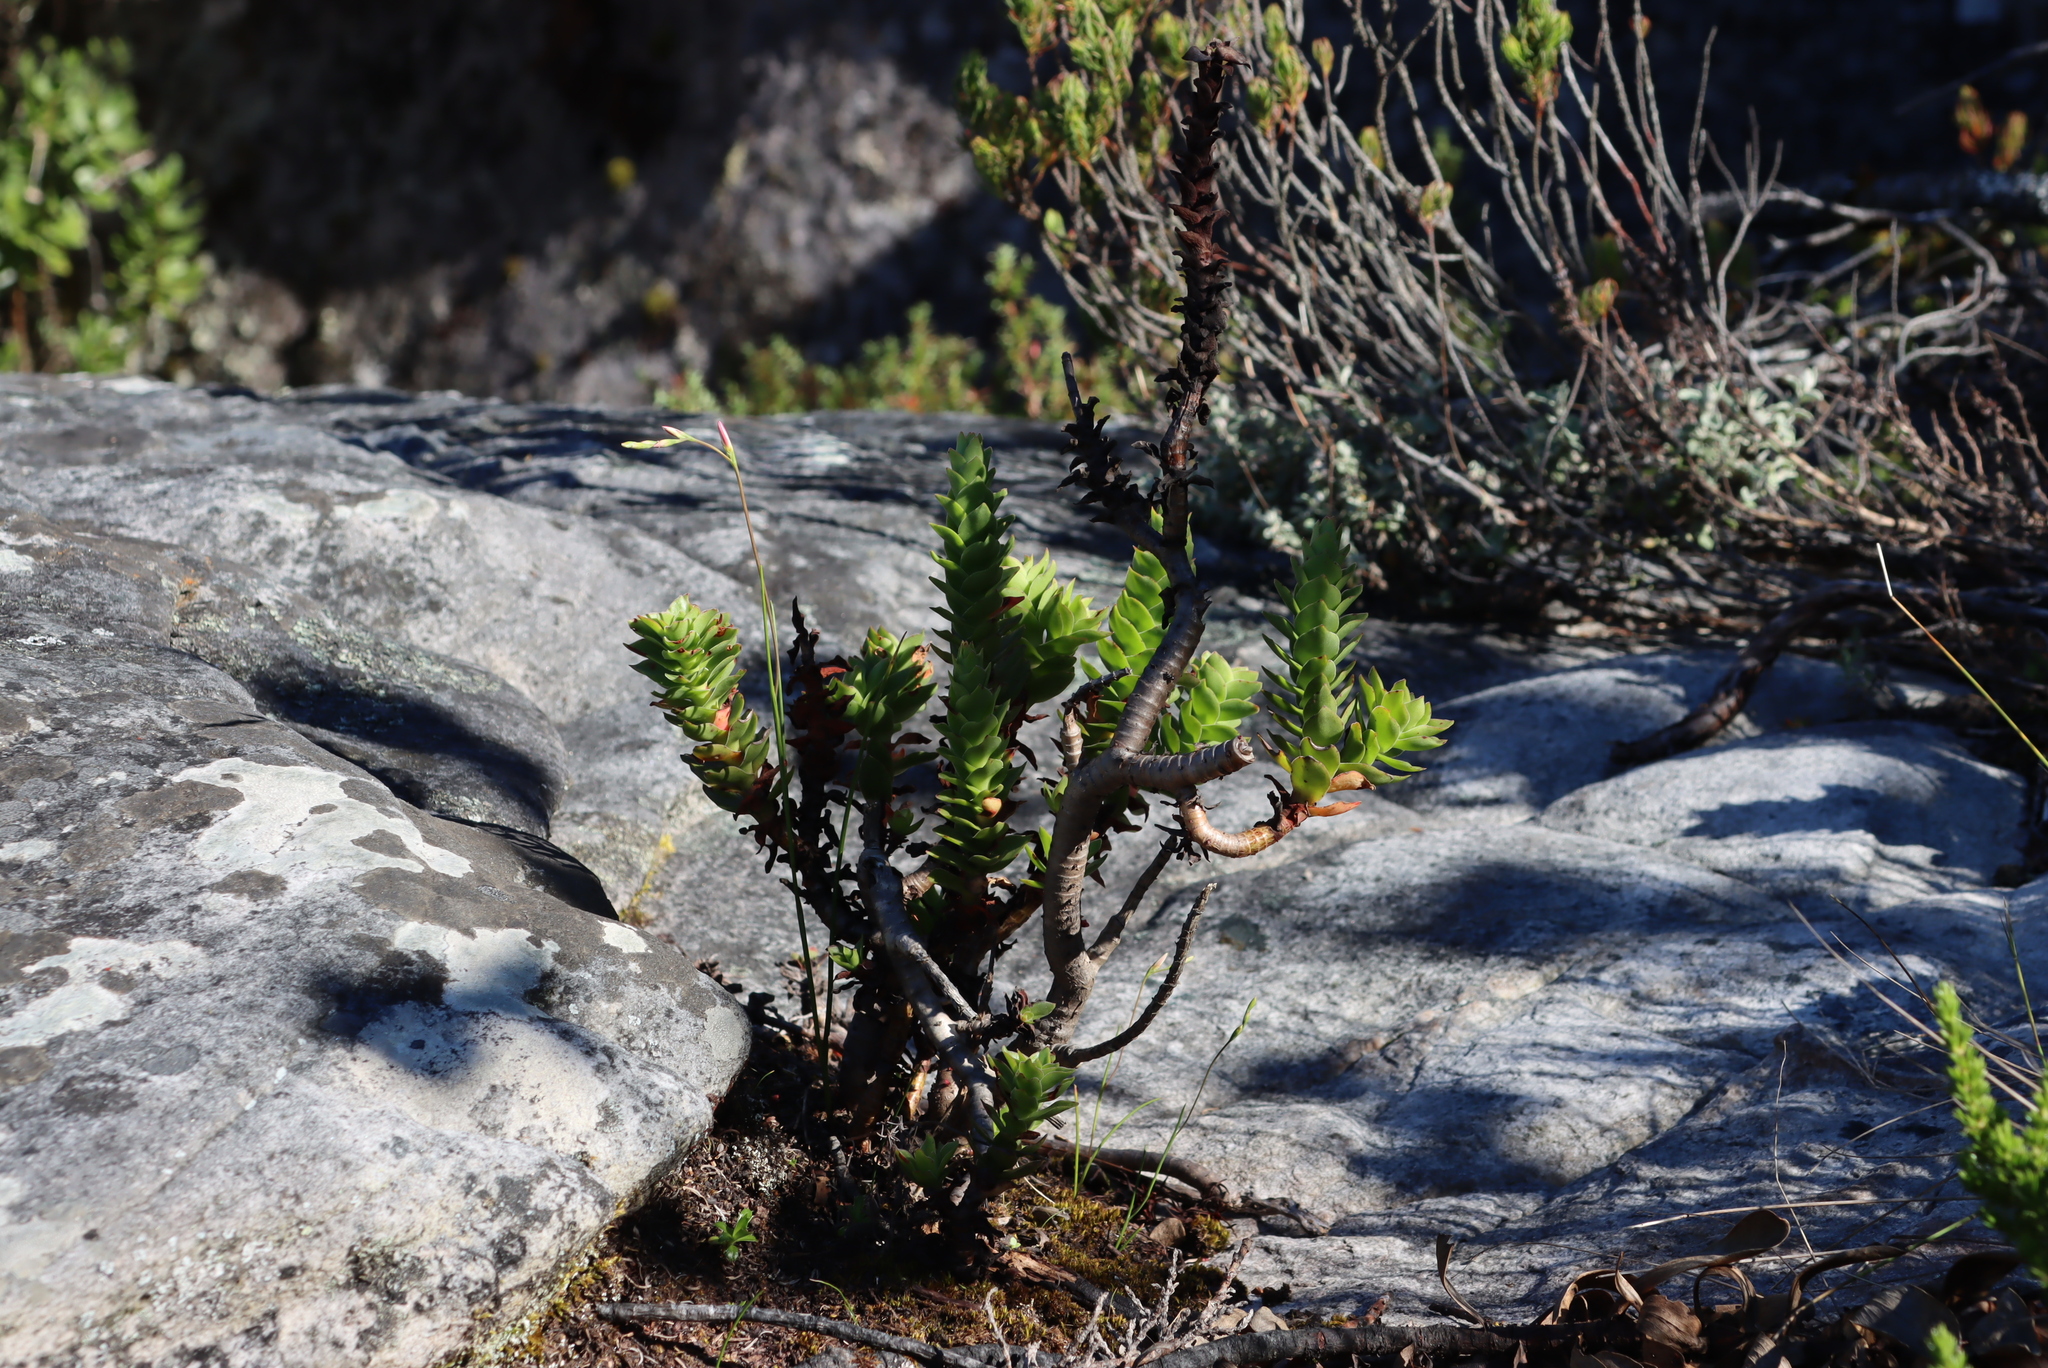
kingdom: Plantae
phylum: Tracheophyta
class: Magnoliopsida
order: Saxifragales
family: Crassulaceae
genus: Crassula
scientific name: Crassula coccinea
